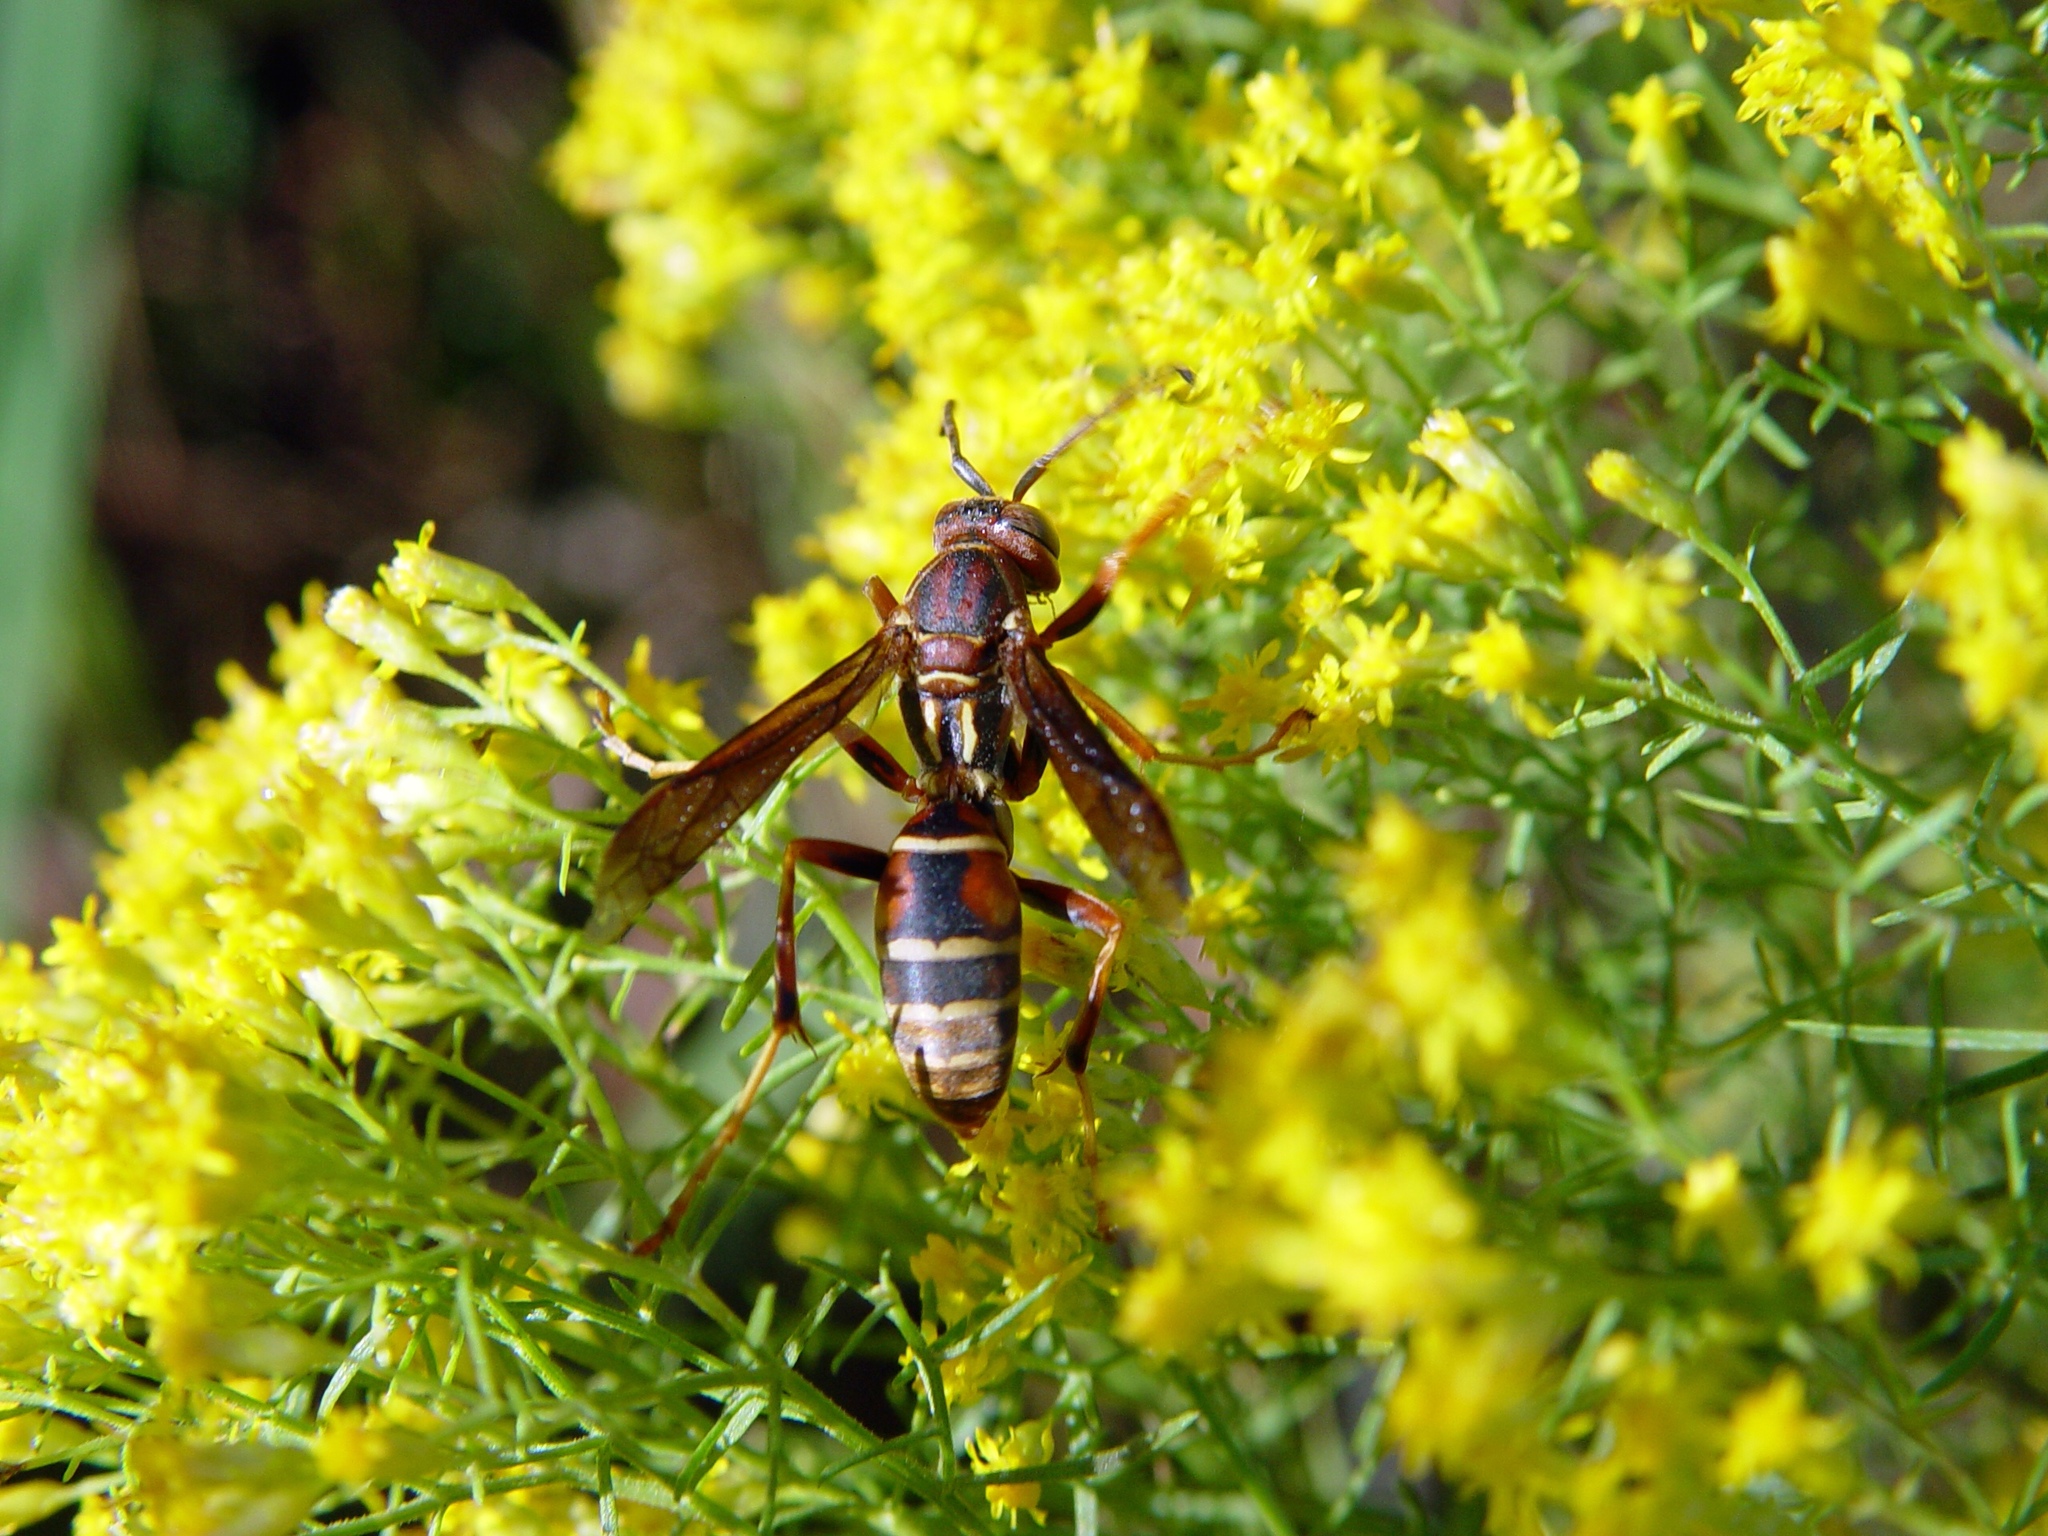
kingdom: Animalia
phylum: Arthropoda
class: Insecta
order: Hymenoptera
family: Eumenidae
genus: Polistes
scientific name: Polistes fuscatus
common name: Dark paper wasp
